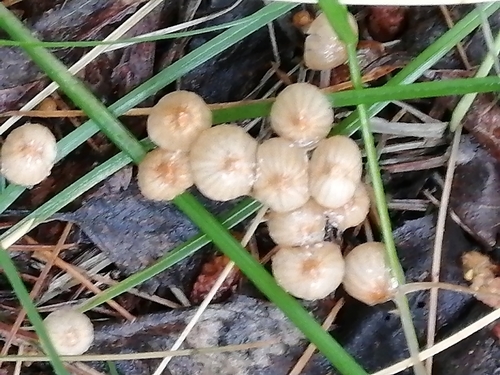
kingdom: Fungi
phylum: Basidiomycota
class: Agaricomycetes
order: Agaricales
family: Marasmiaceae
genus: Marasmius
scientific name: Marasmius siccus
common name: Orange pinwheel
